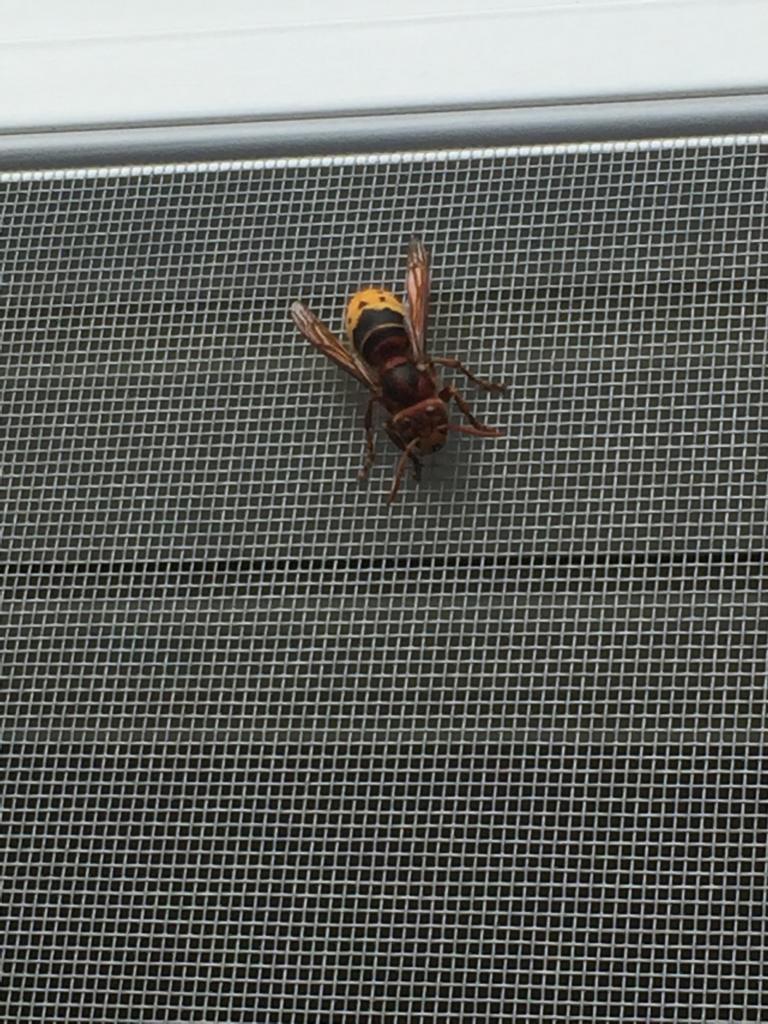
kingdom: Animalia
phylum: Arthropoda
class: Insecta
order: Hymenoptera
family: Vespidae
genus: Vespa
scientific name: Vespa crabro
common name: Hornet
